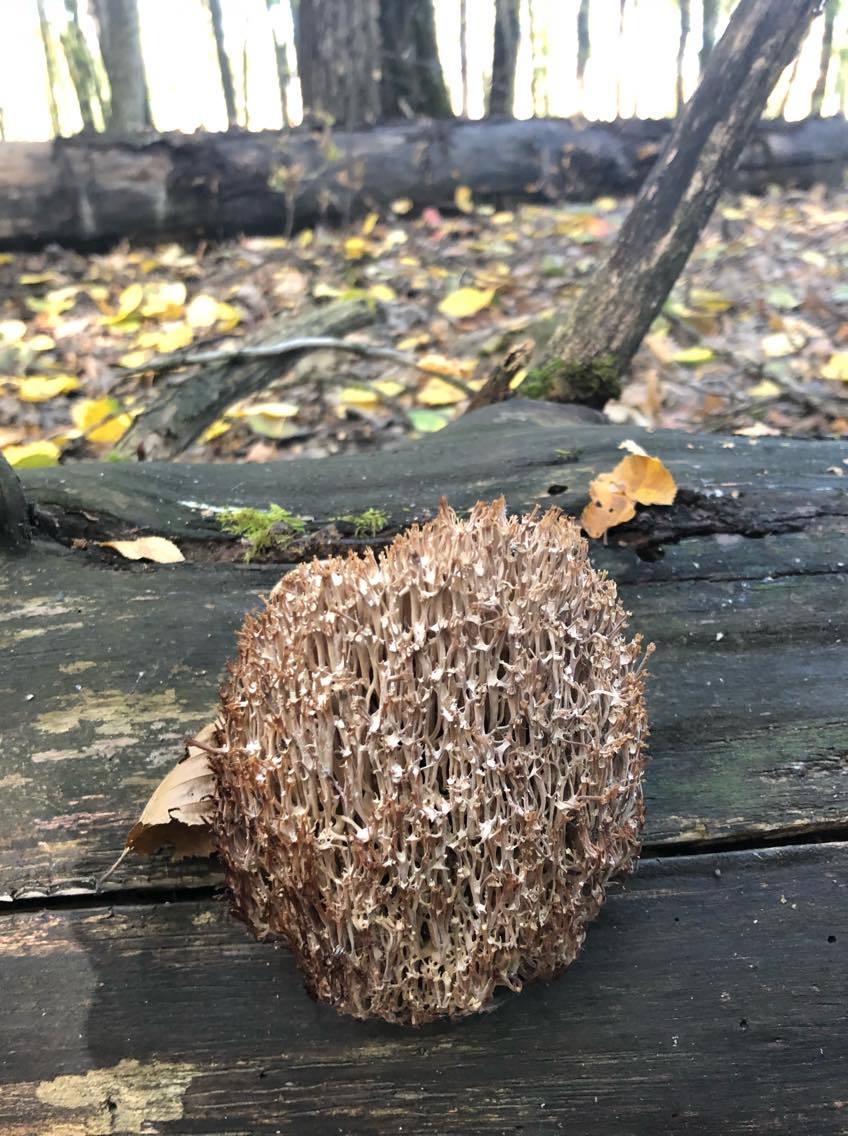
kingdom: Fungi
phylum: Basidiomycota
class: Agaricomycetes
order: Russulales
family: Auriscalpiaceae
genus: Artomyces
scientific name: Artomyces pyxidatus
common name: Crown-tipped coral fungus
